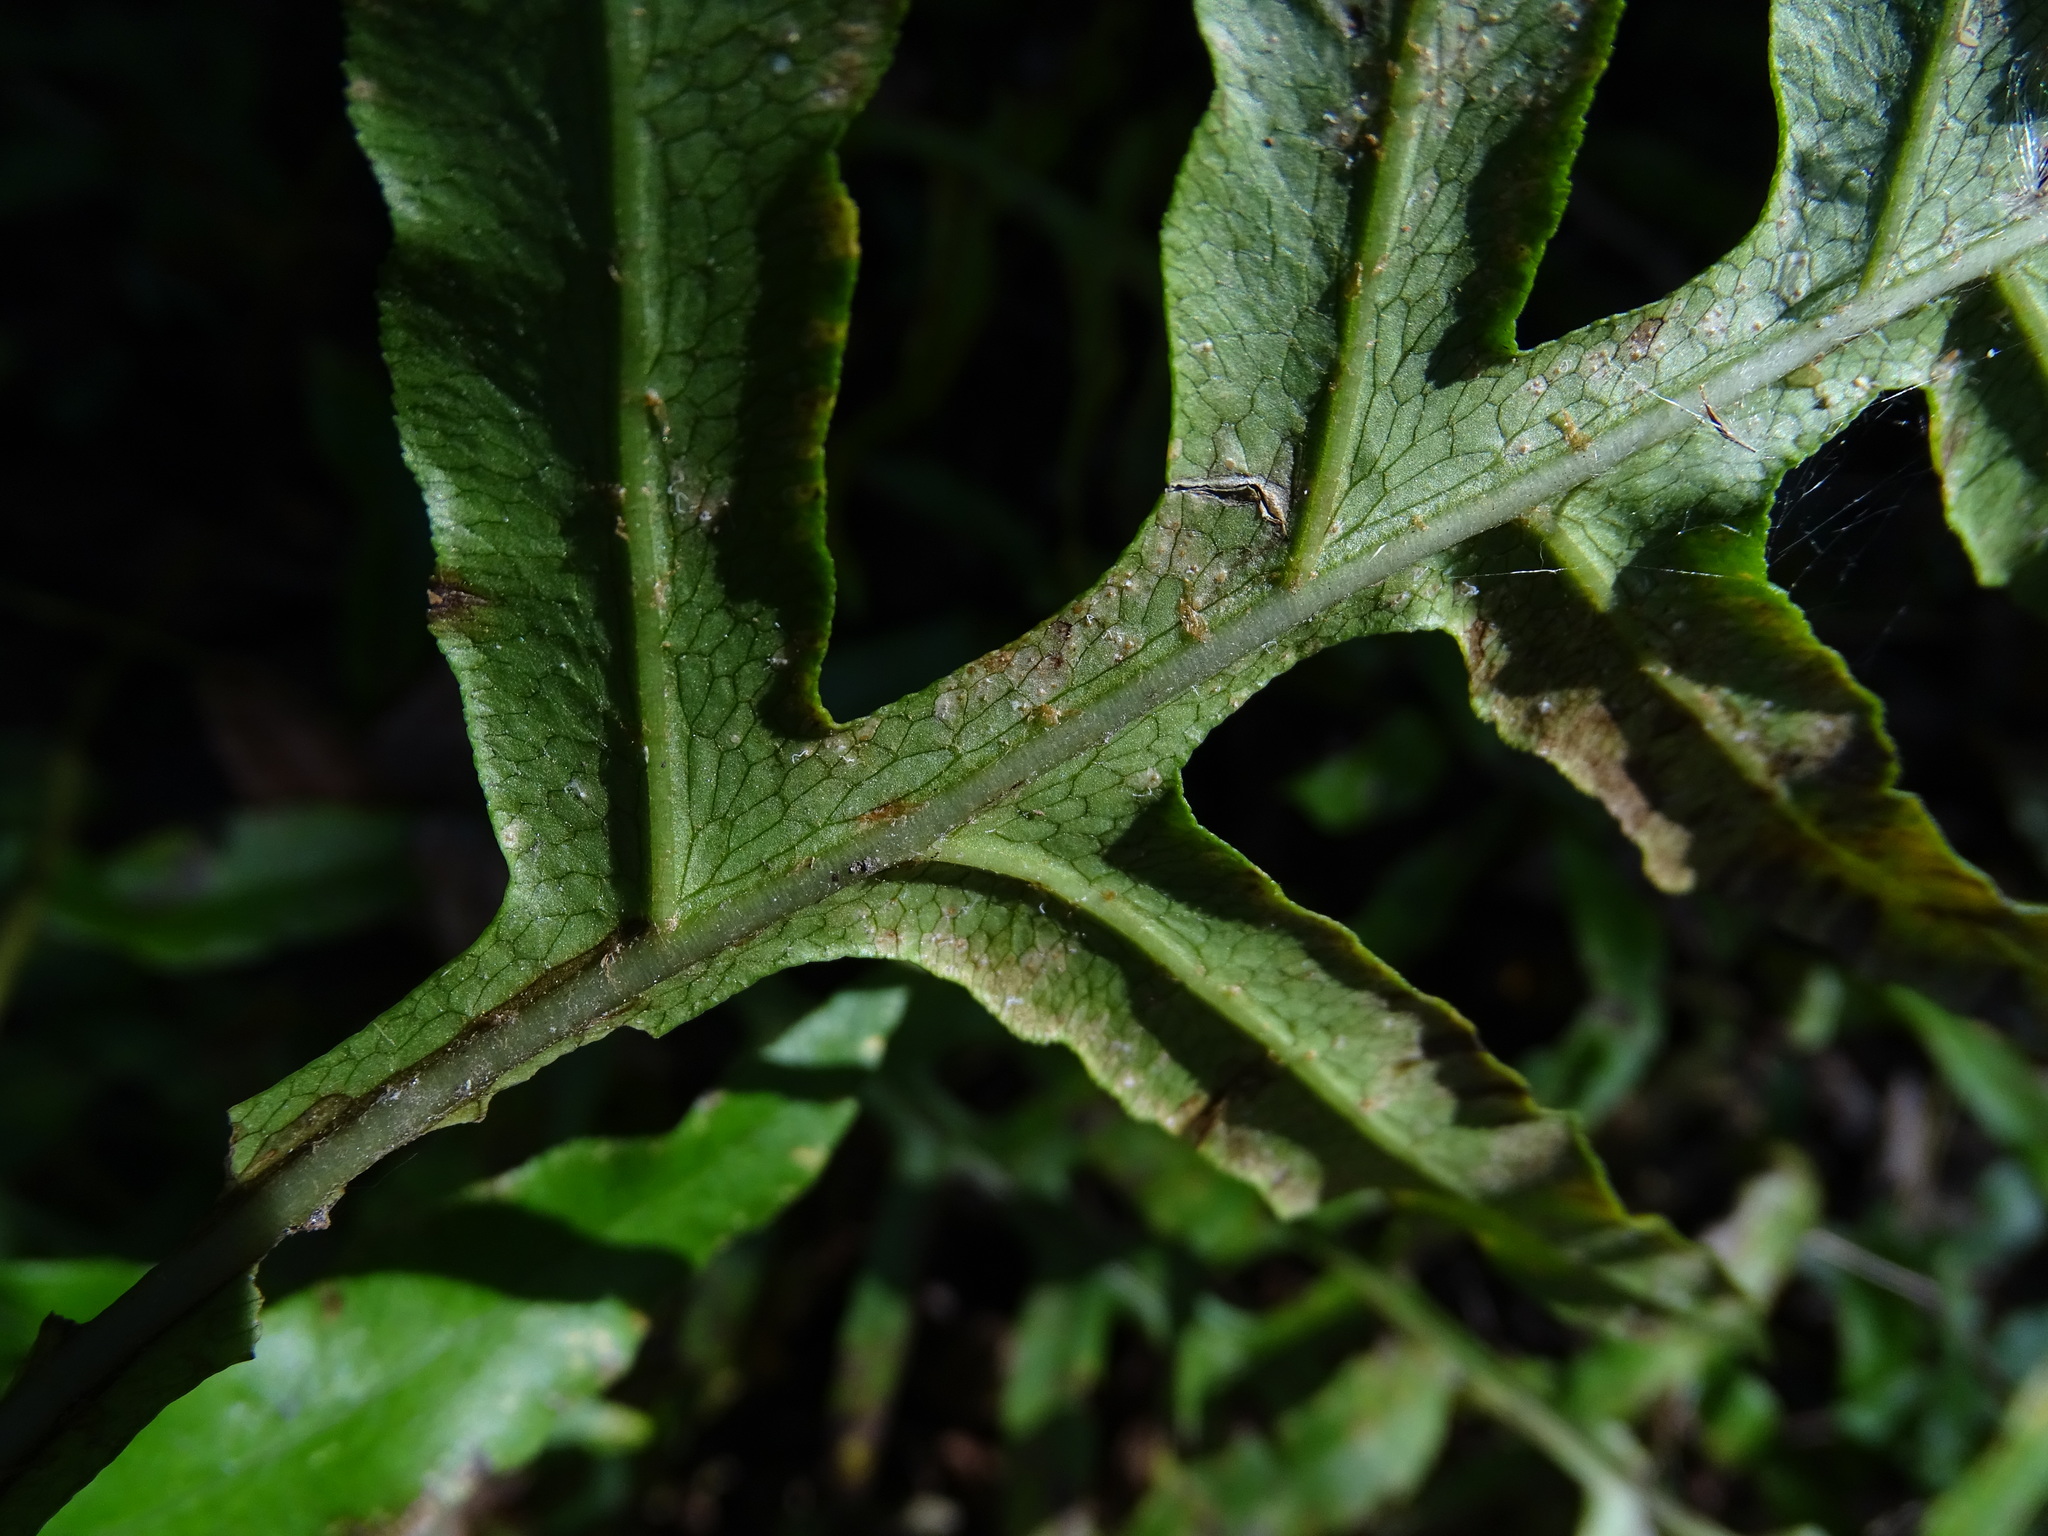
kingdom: Plantae
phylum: Tracheophyta
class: Polypodiopsida
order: Polypodiales
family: Blechnaceae
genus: Lorinseria
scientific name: Lorinseria areolata
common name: Dwarf chain fern
